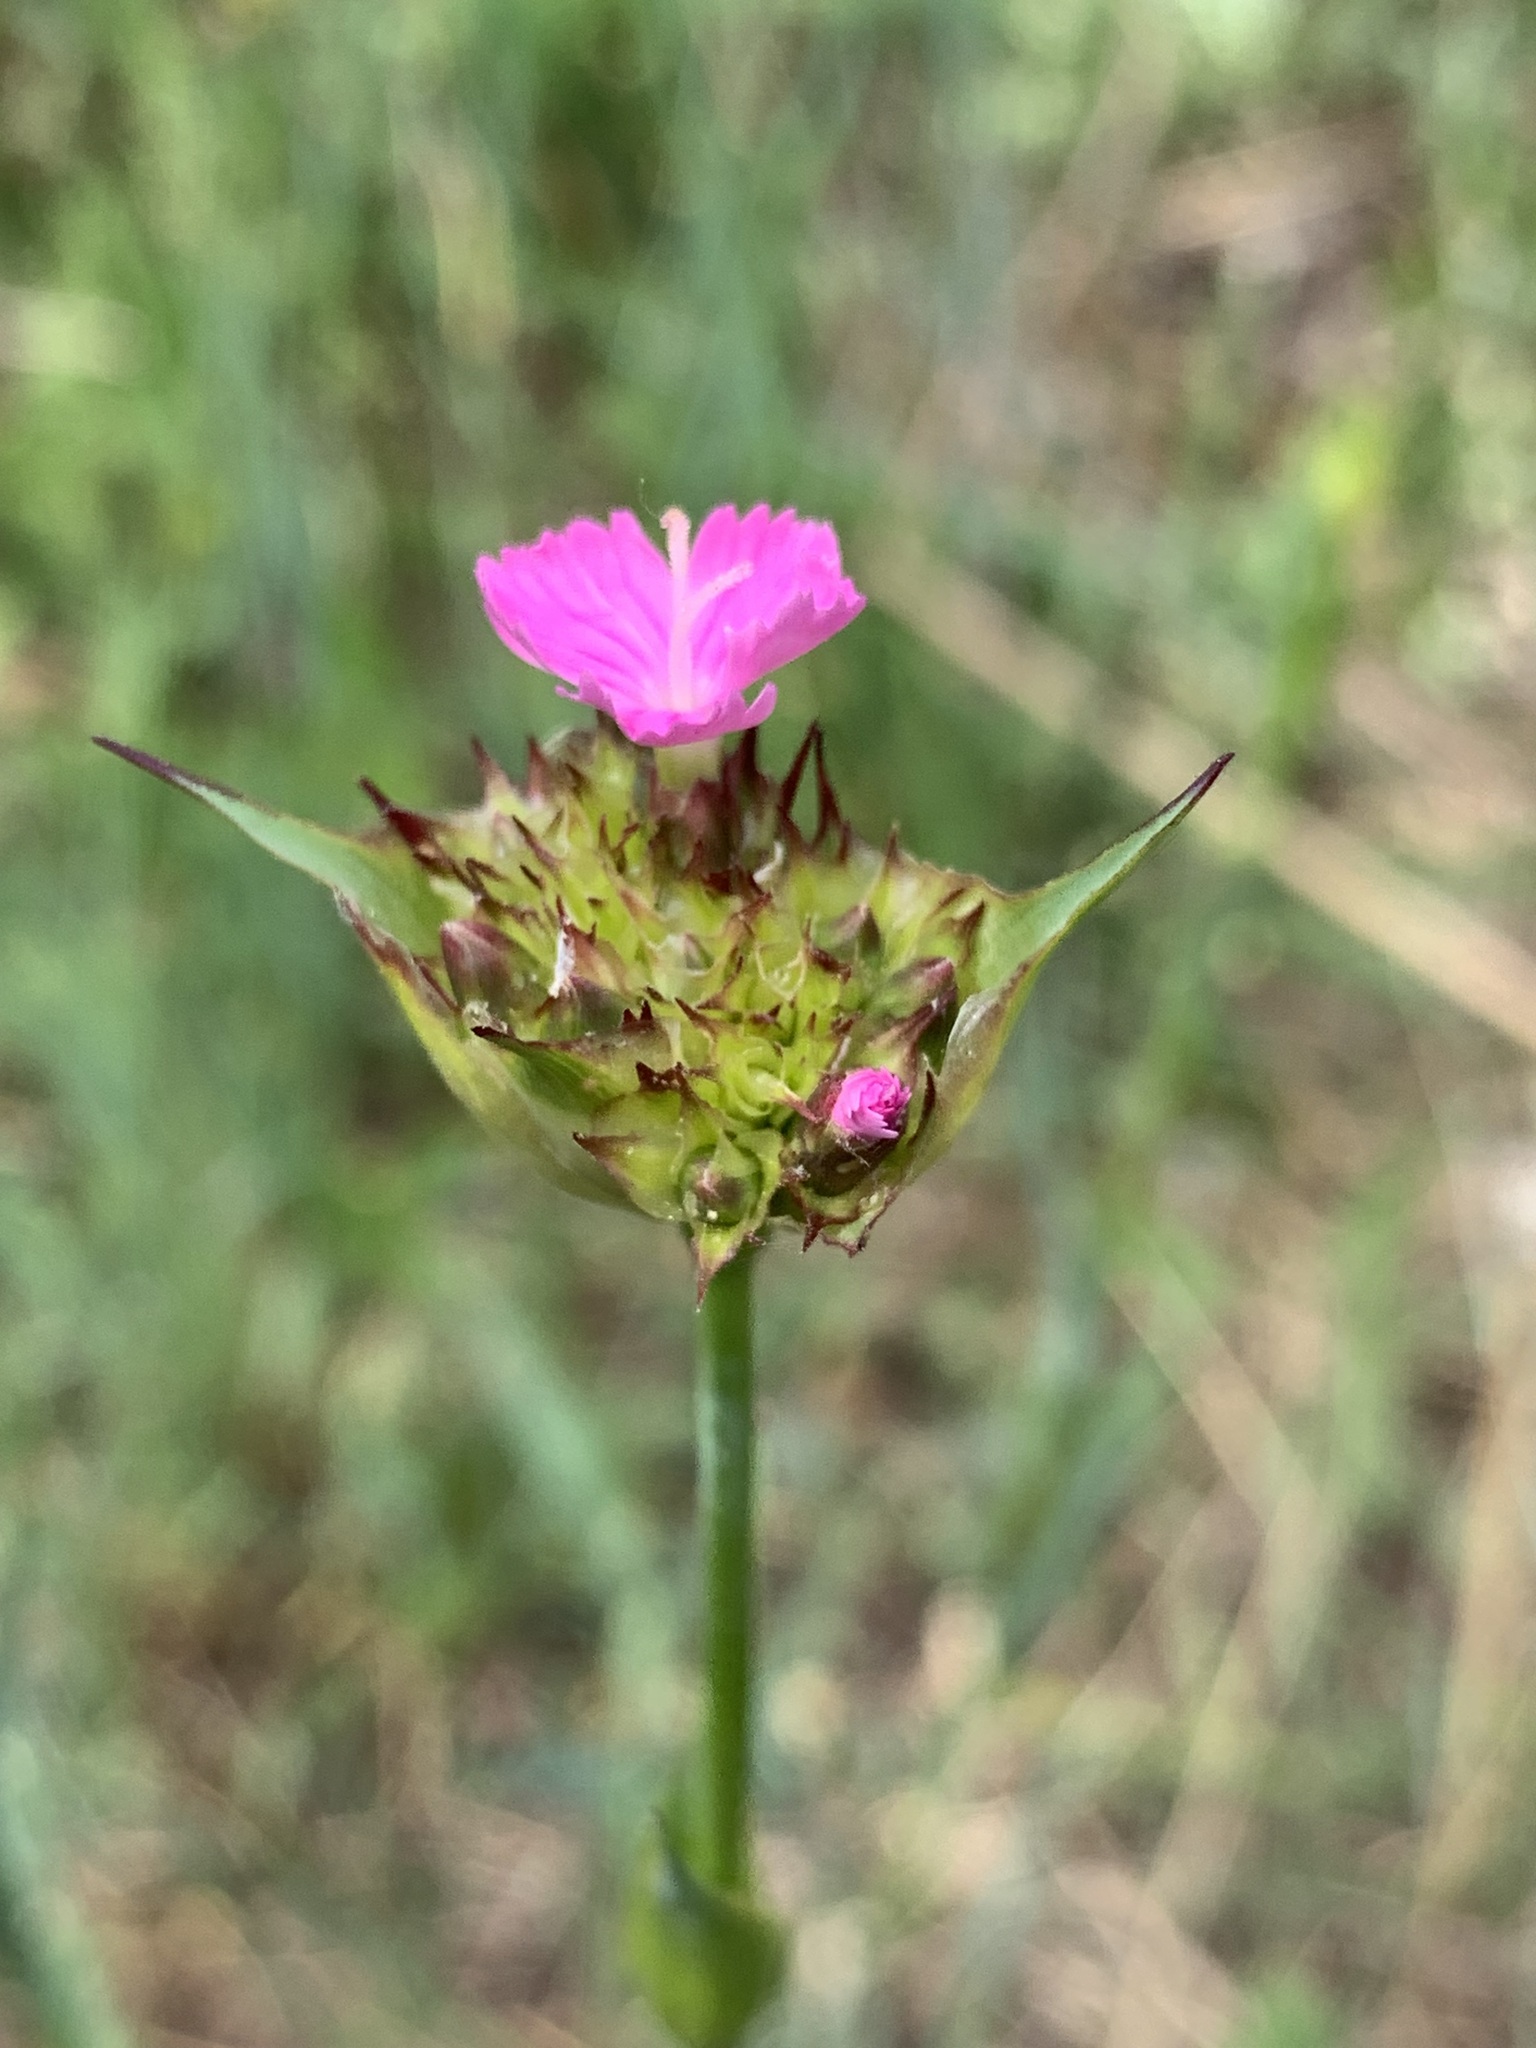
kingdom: Plantae
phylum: Tracheophyta
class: Magnoliopsida
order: Caryophyllales
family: Caryophyllaceae
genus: Dianthus
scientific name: Dianthus capitatus
